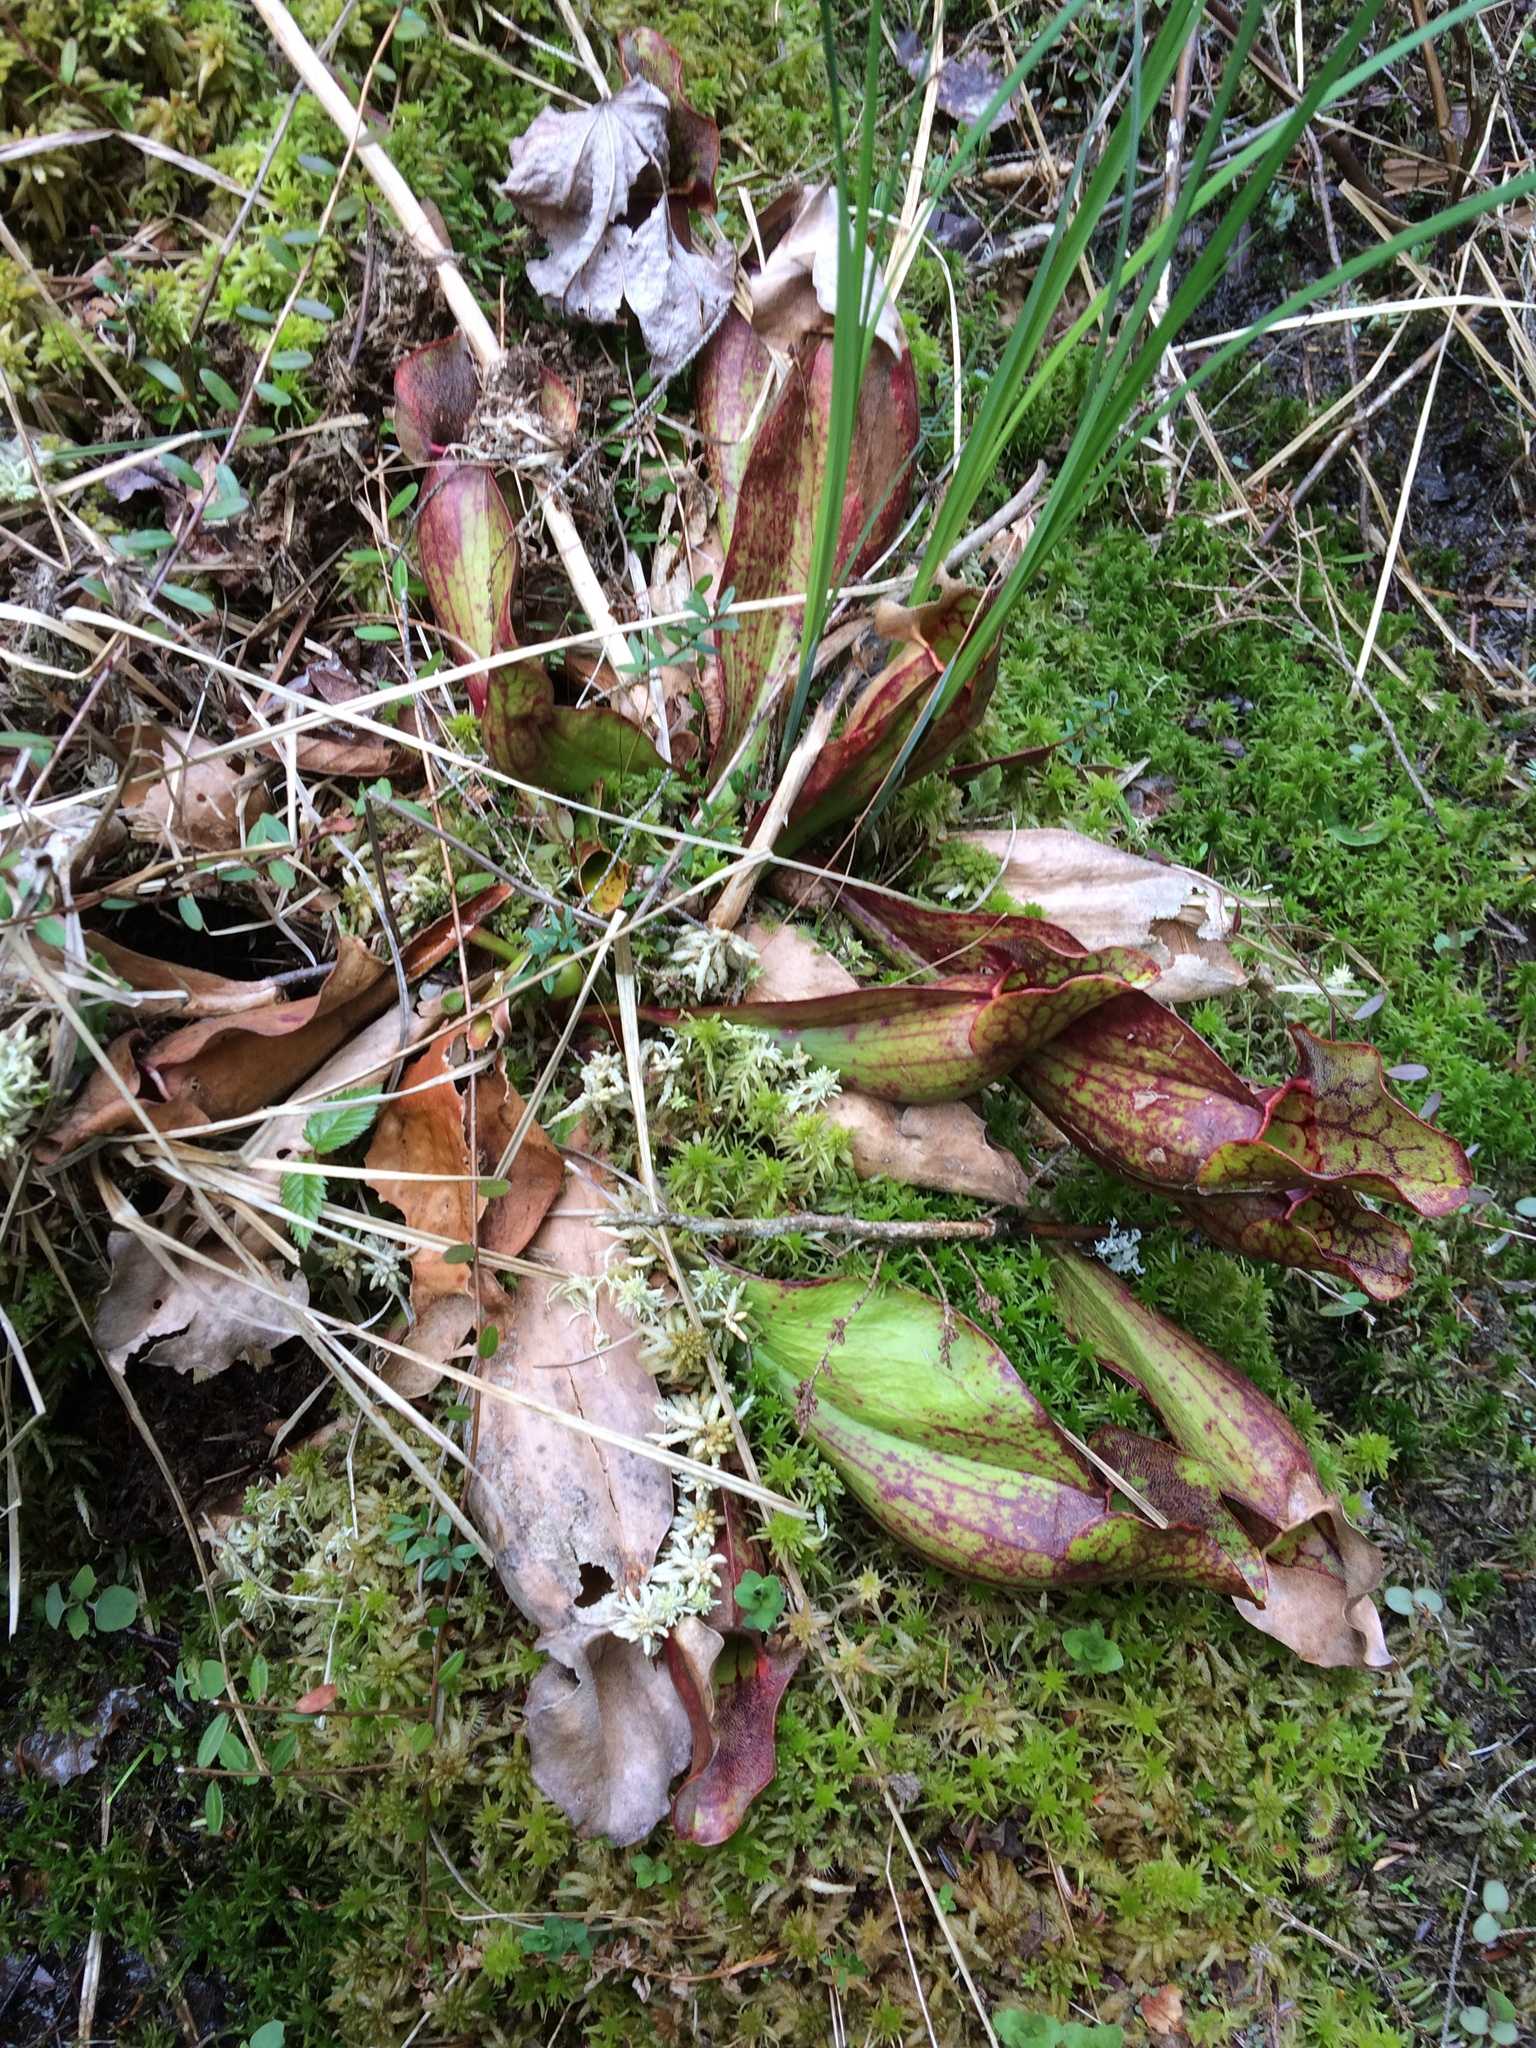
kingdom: Plantae
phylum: Tracheophyta
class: Magnoliopsida
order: Ericales
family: Sarraceniaceae
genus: Sarracenia
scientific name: Sarracenia purpurea
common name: Pitcherplant
